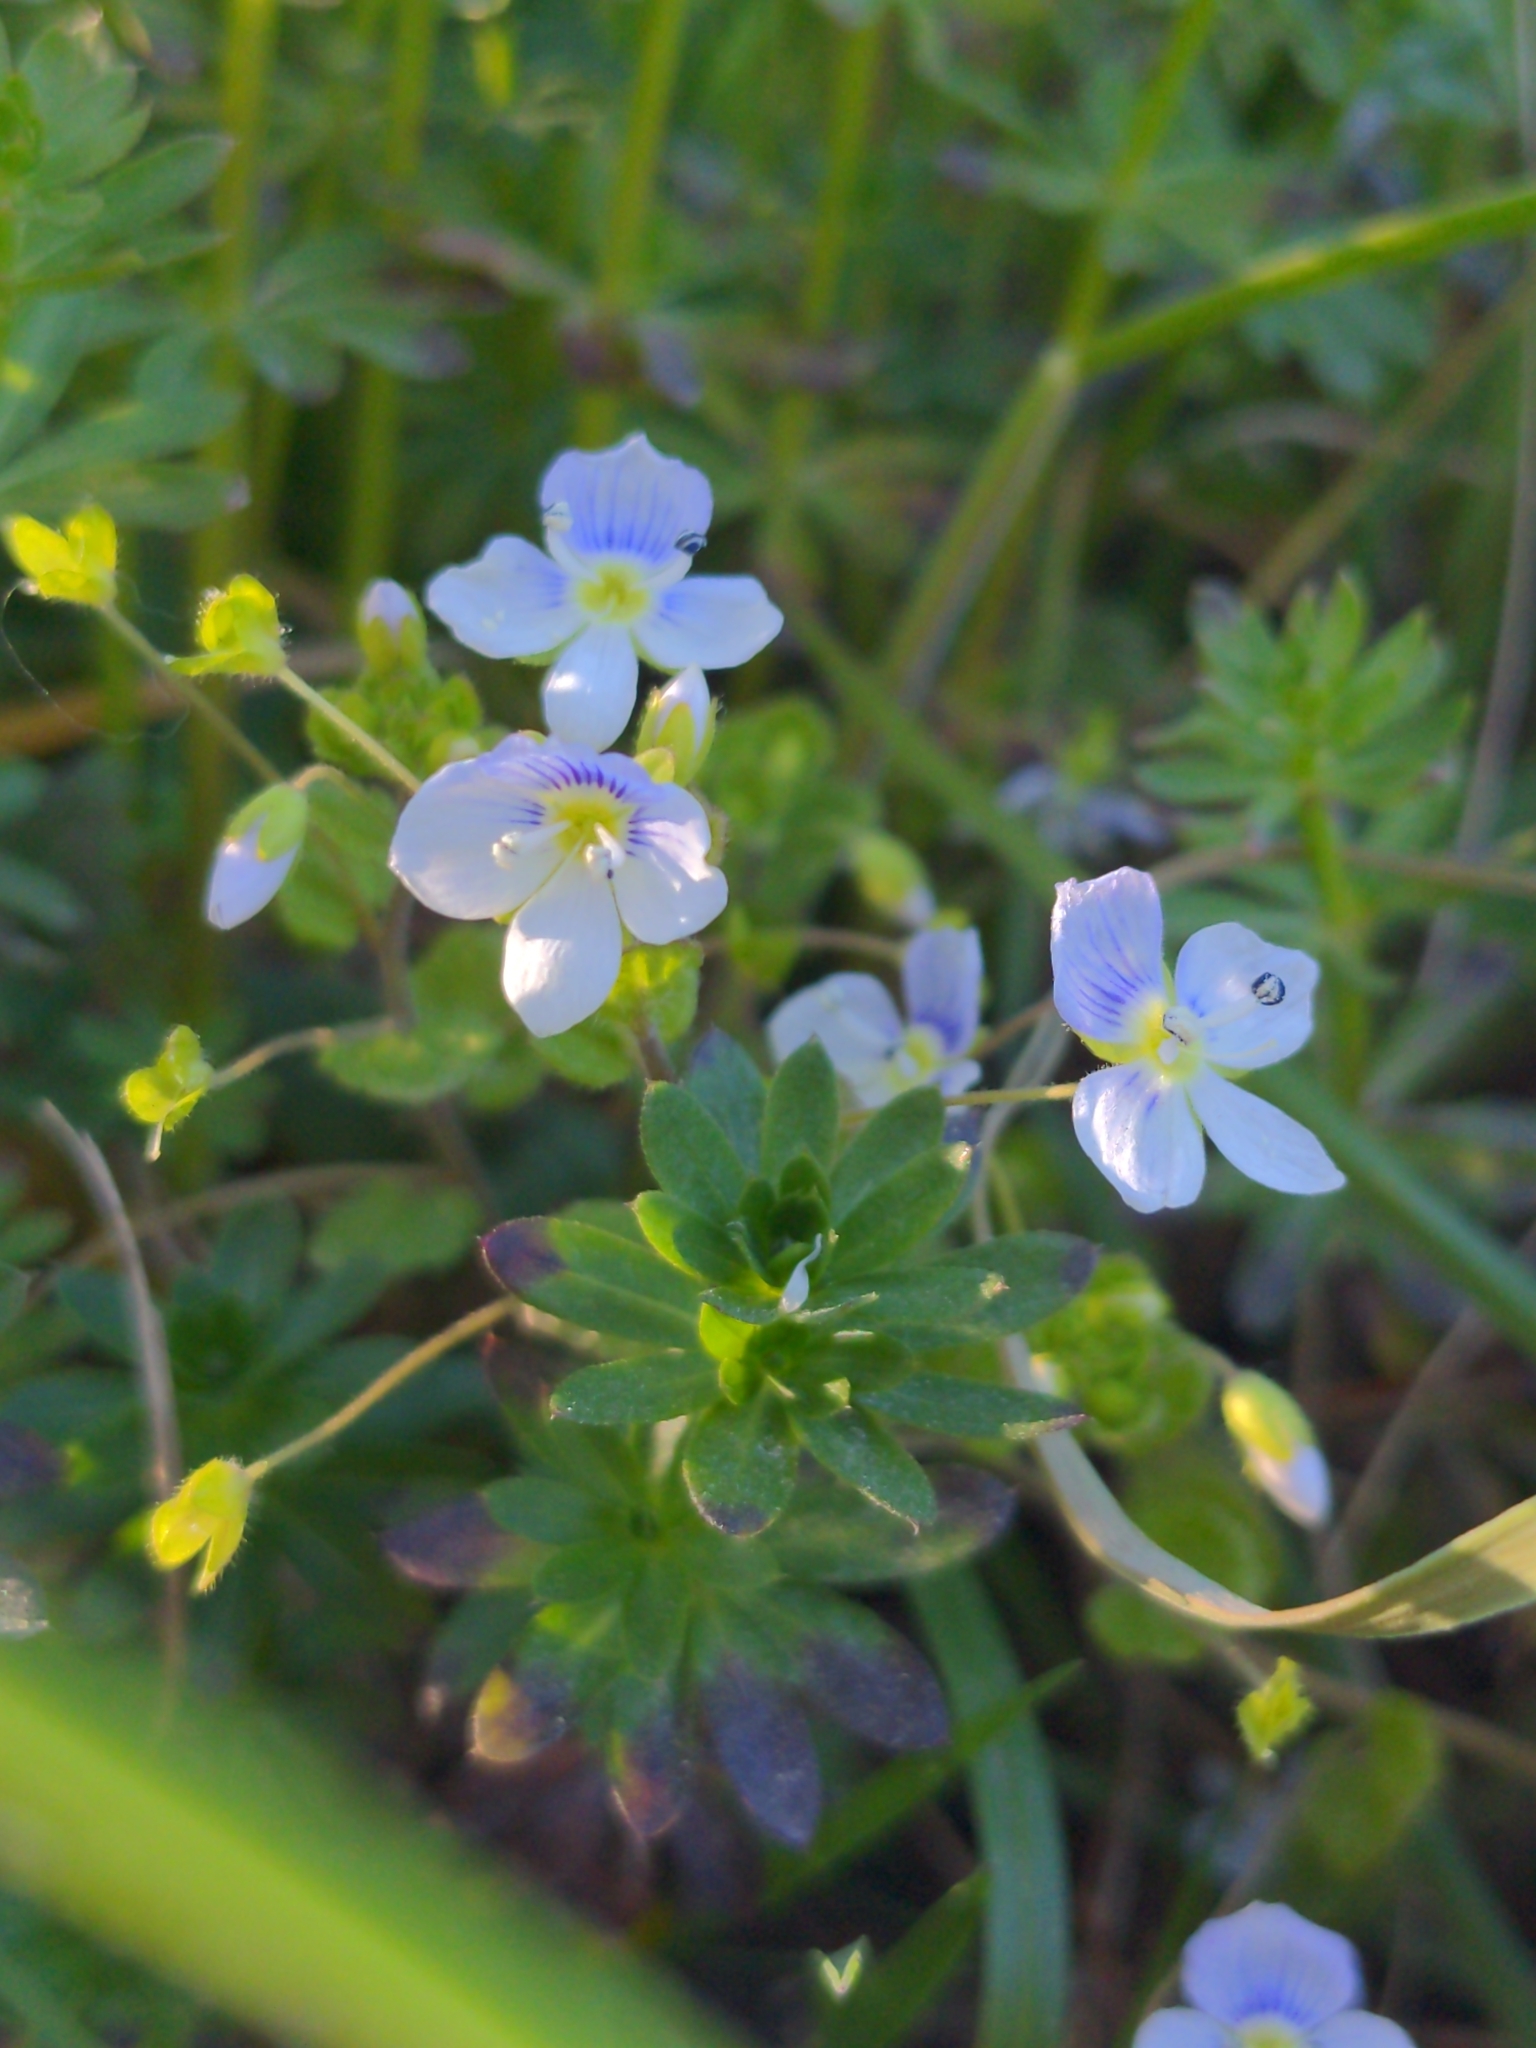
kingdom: Plantae
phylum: Tracheophyta
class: Magnoliopsida
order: Lamiales
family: Plantaginaceae
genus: Veronica
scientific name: Veronica filiformis
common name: Slender speedwell
